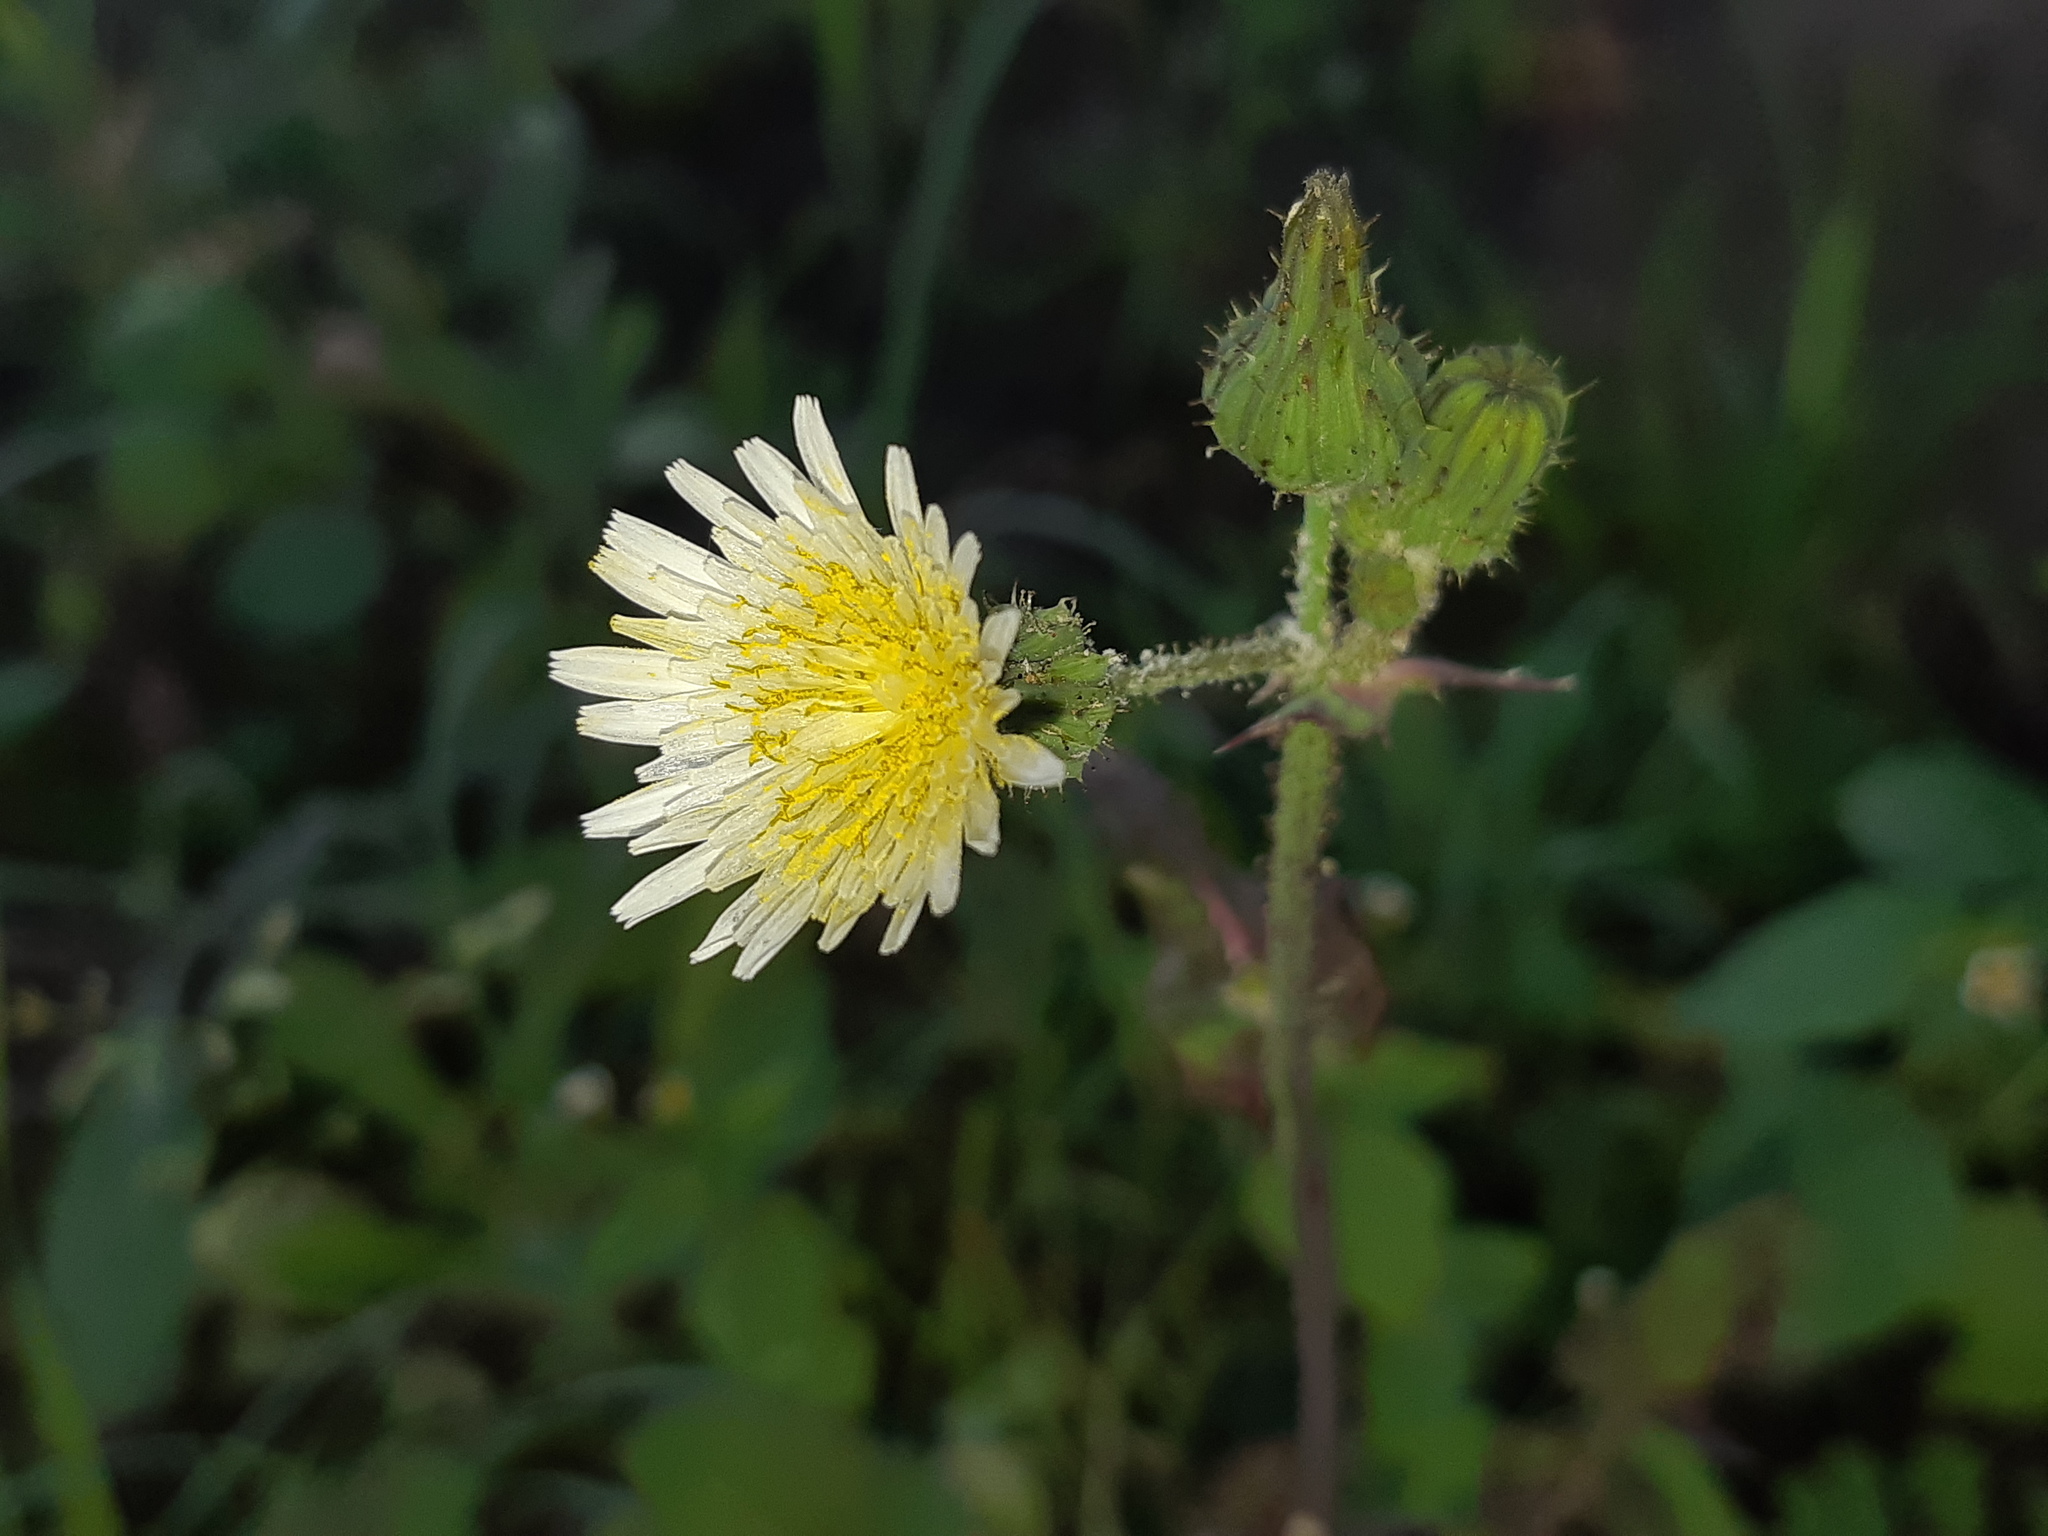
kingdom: Plantae
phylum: Tracheophyta
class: Magnoliopsida
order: Asterales
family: Asteraceae
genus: Sonchus
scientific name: Sonchus oleraceus
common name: Common sowthistle
